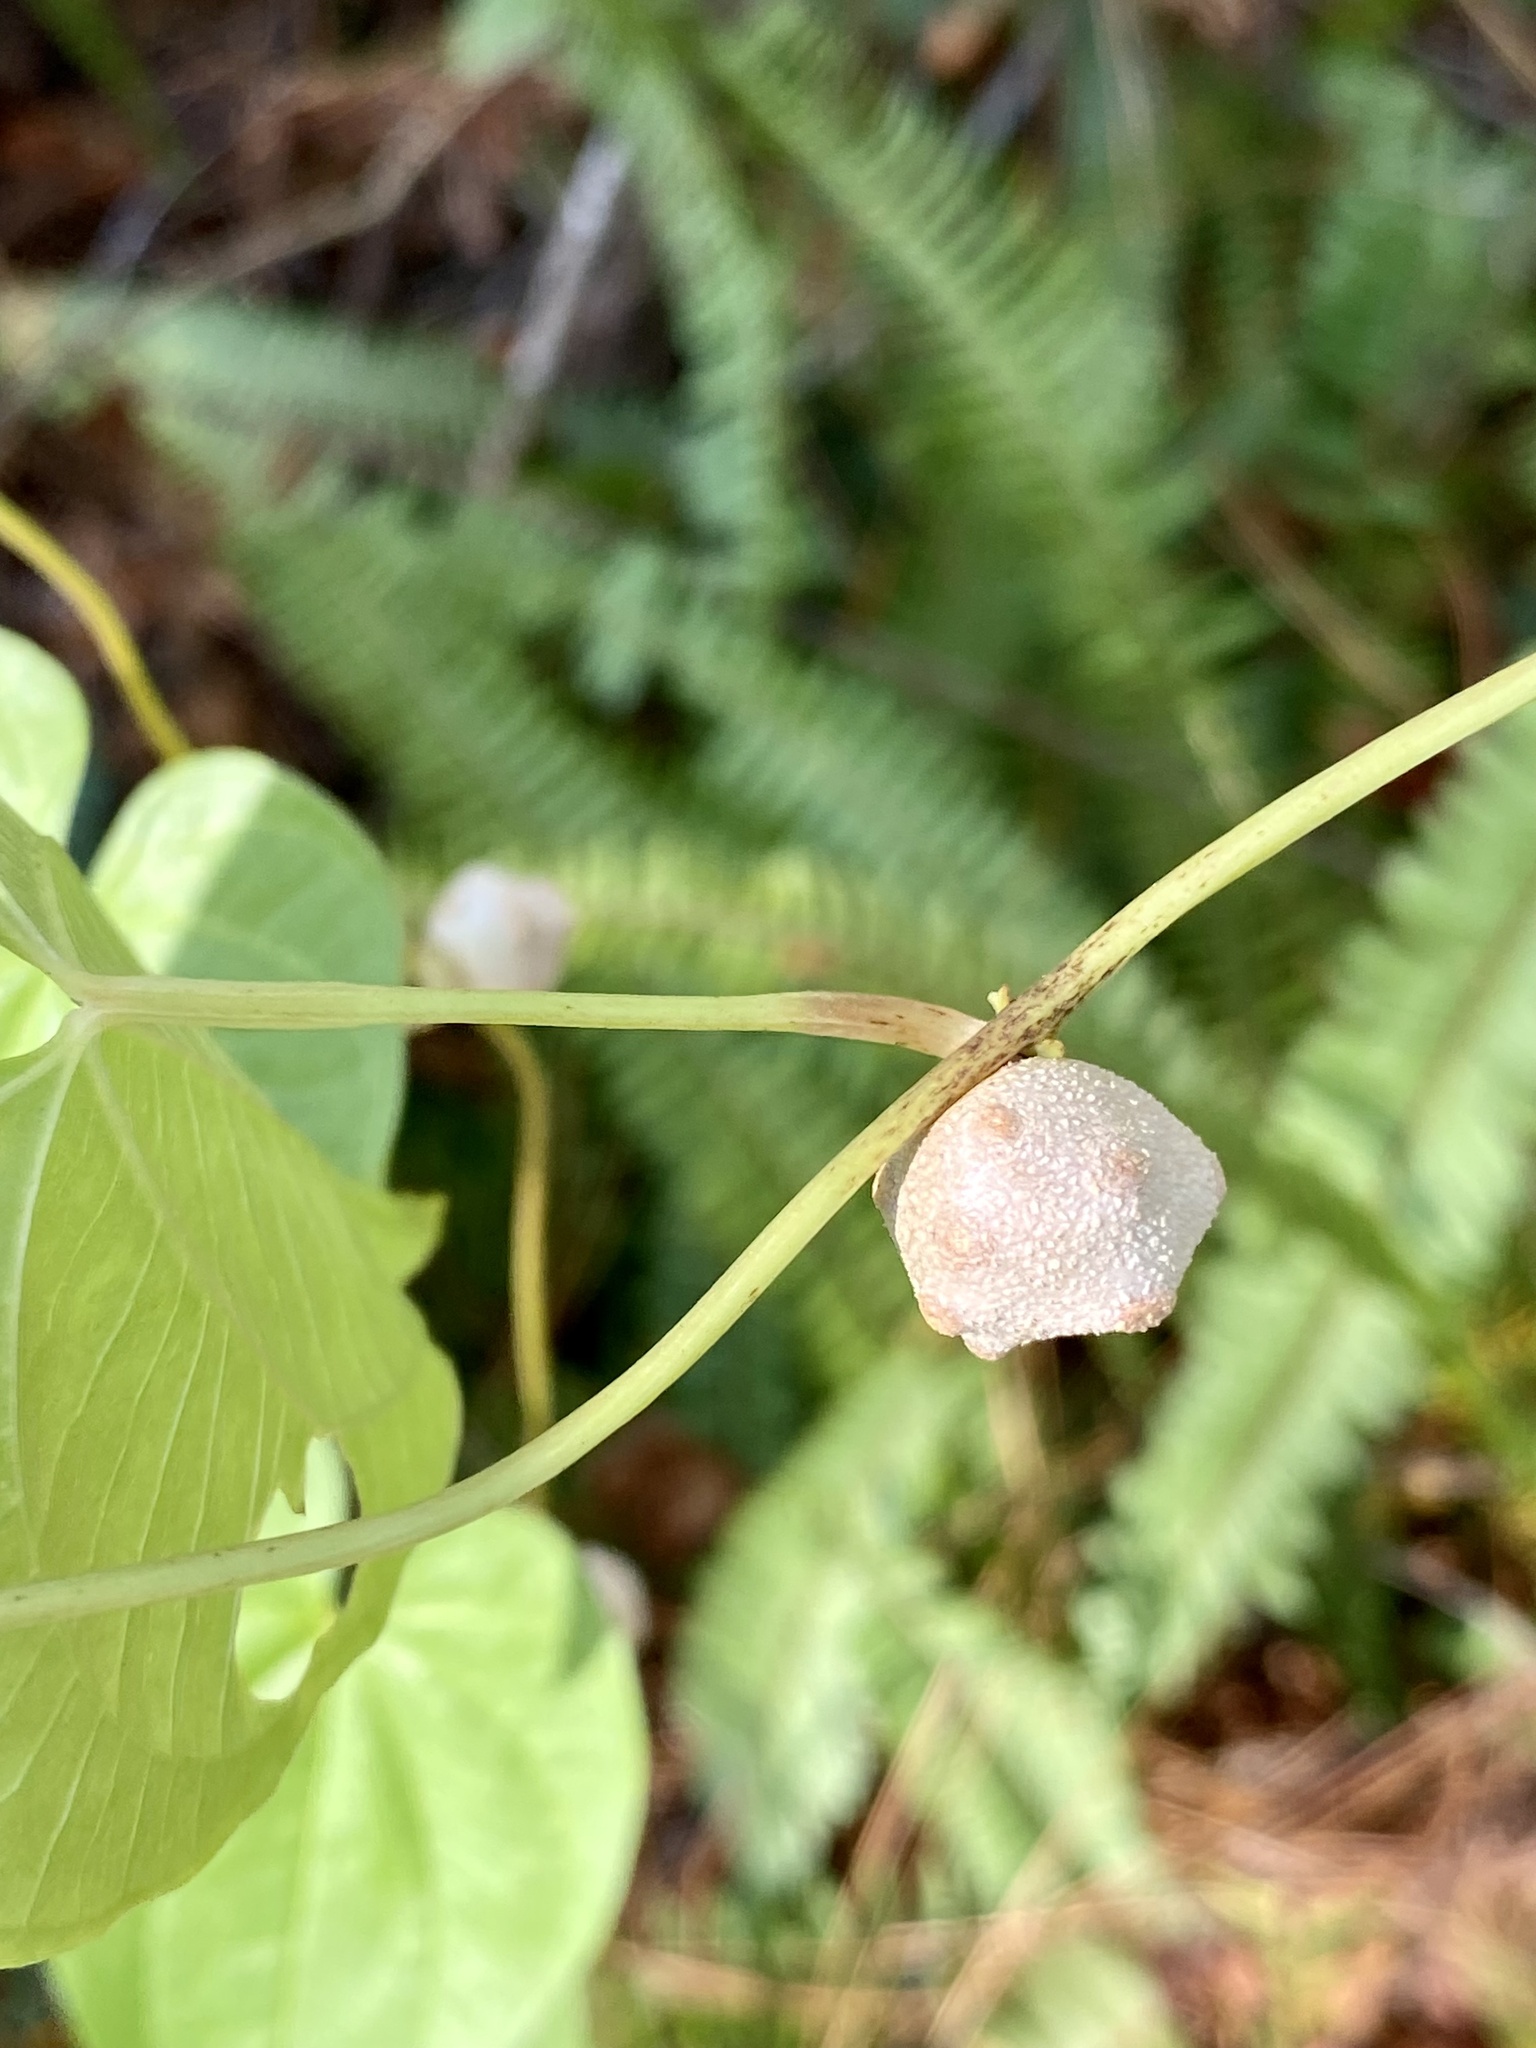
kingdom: Plantae
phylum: Tracheophyta
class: Liliopsida
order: Dioscoreales
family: Dioscoreaceae
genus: Dioscorea
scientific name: Dioscorea bulbifera
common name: Air yam
